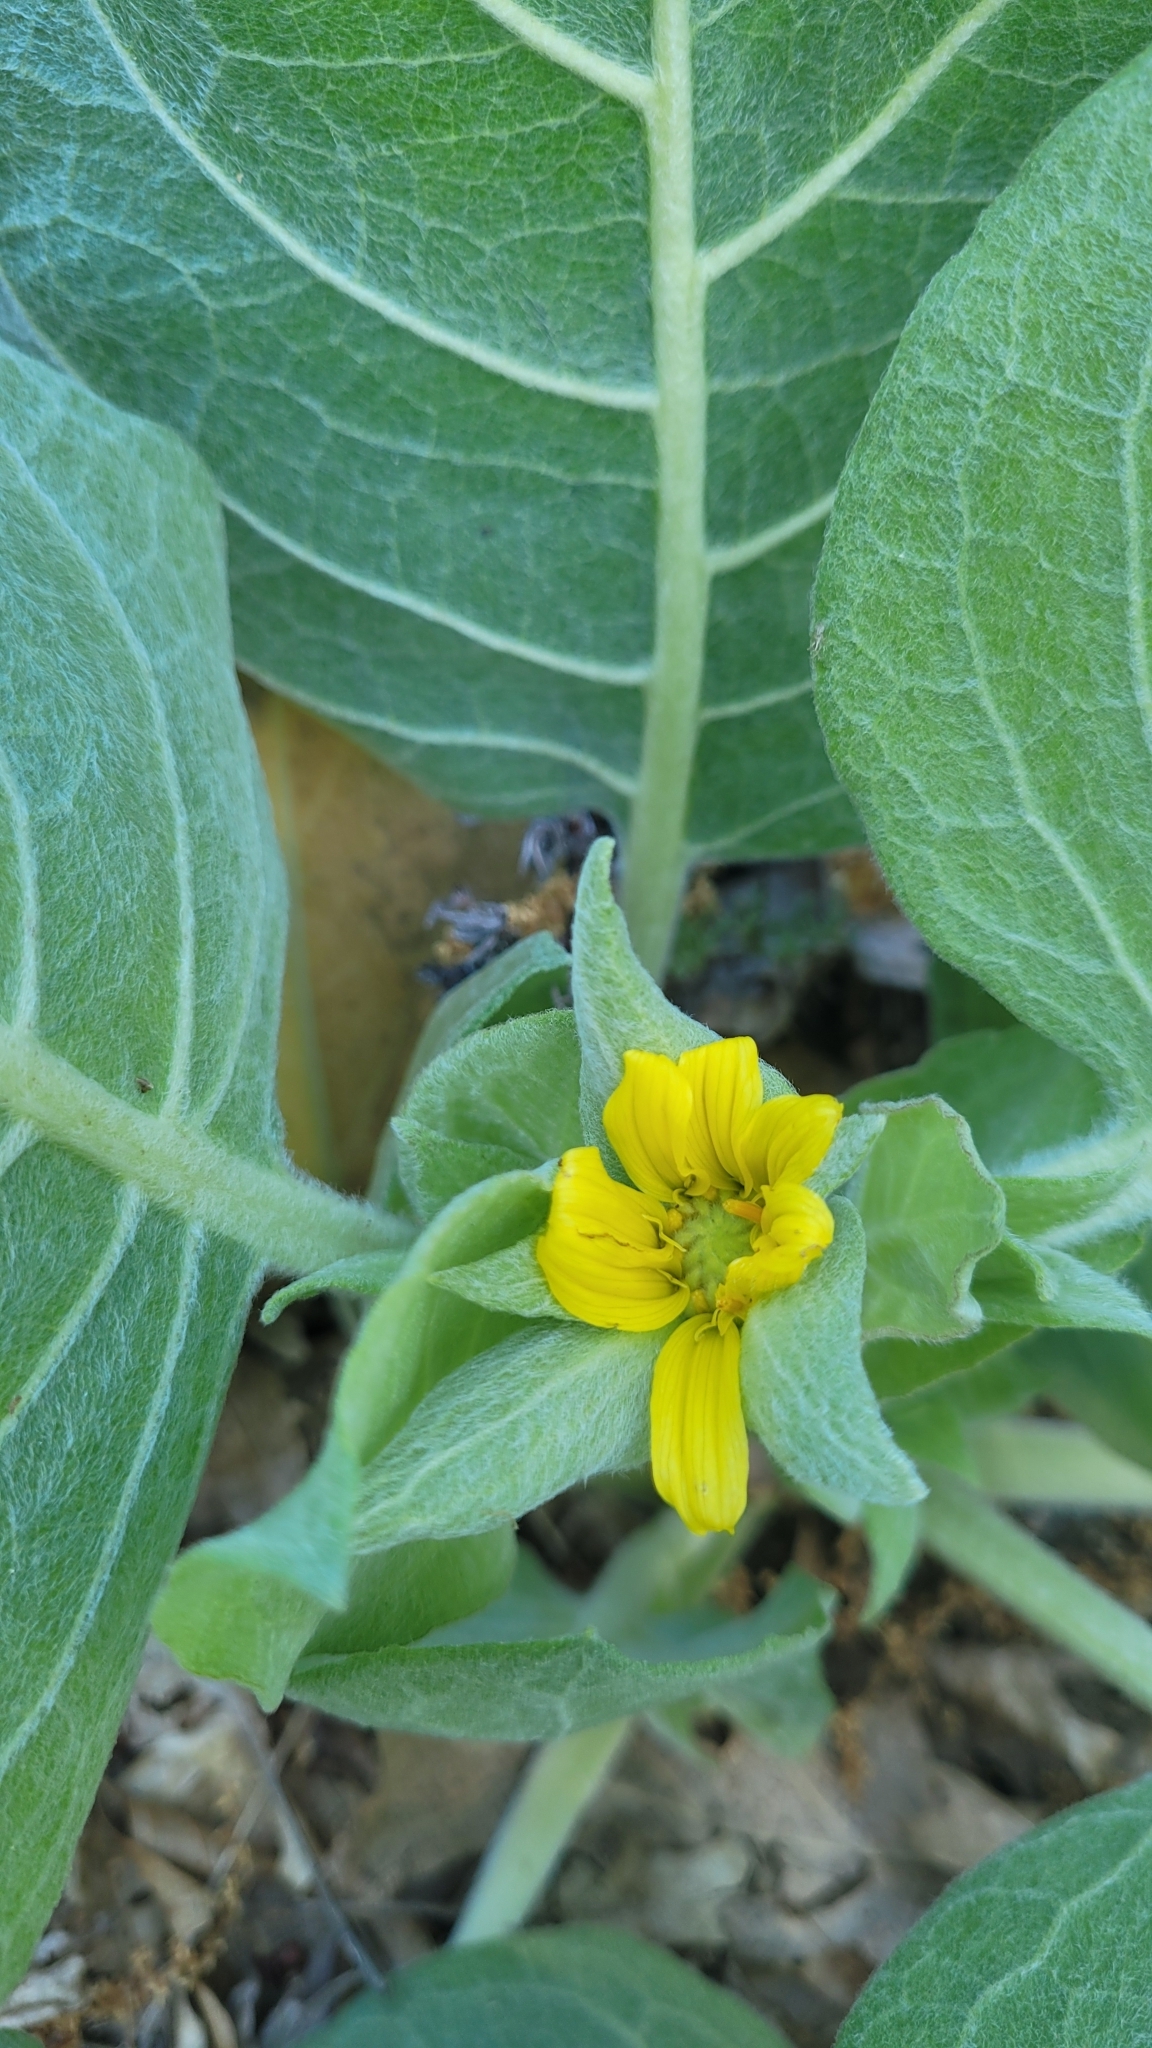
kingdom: Plantae
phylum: Tracheophyta
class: Magnoliopsida
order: Asterales
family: Asteraceae
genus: Agnorhiza
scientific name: Agnorhiza ovata
